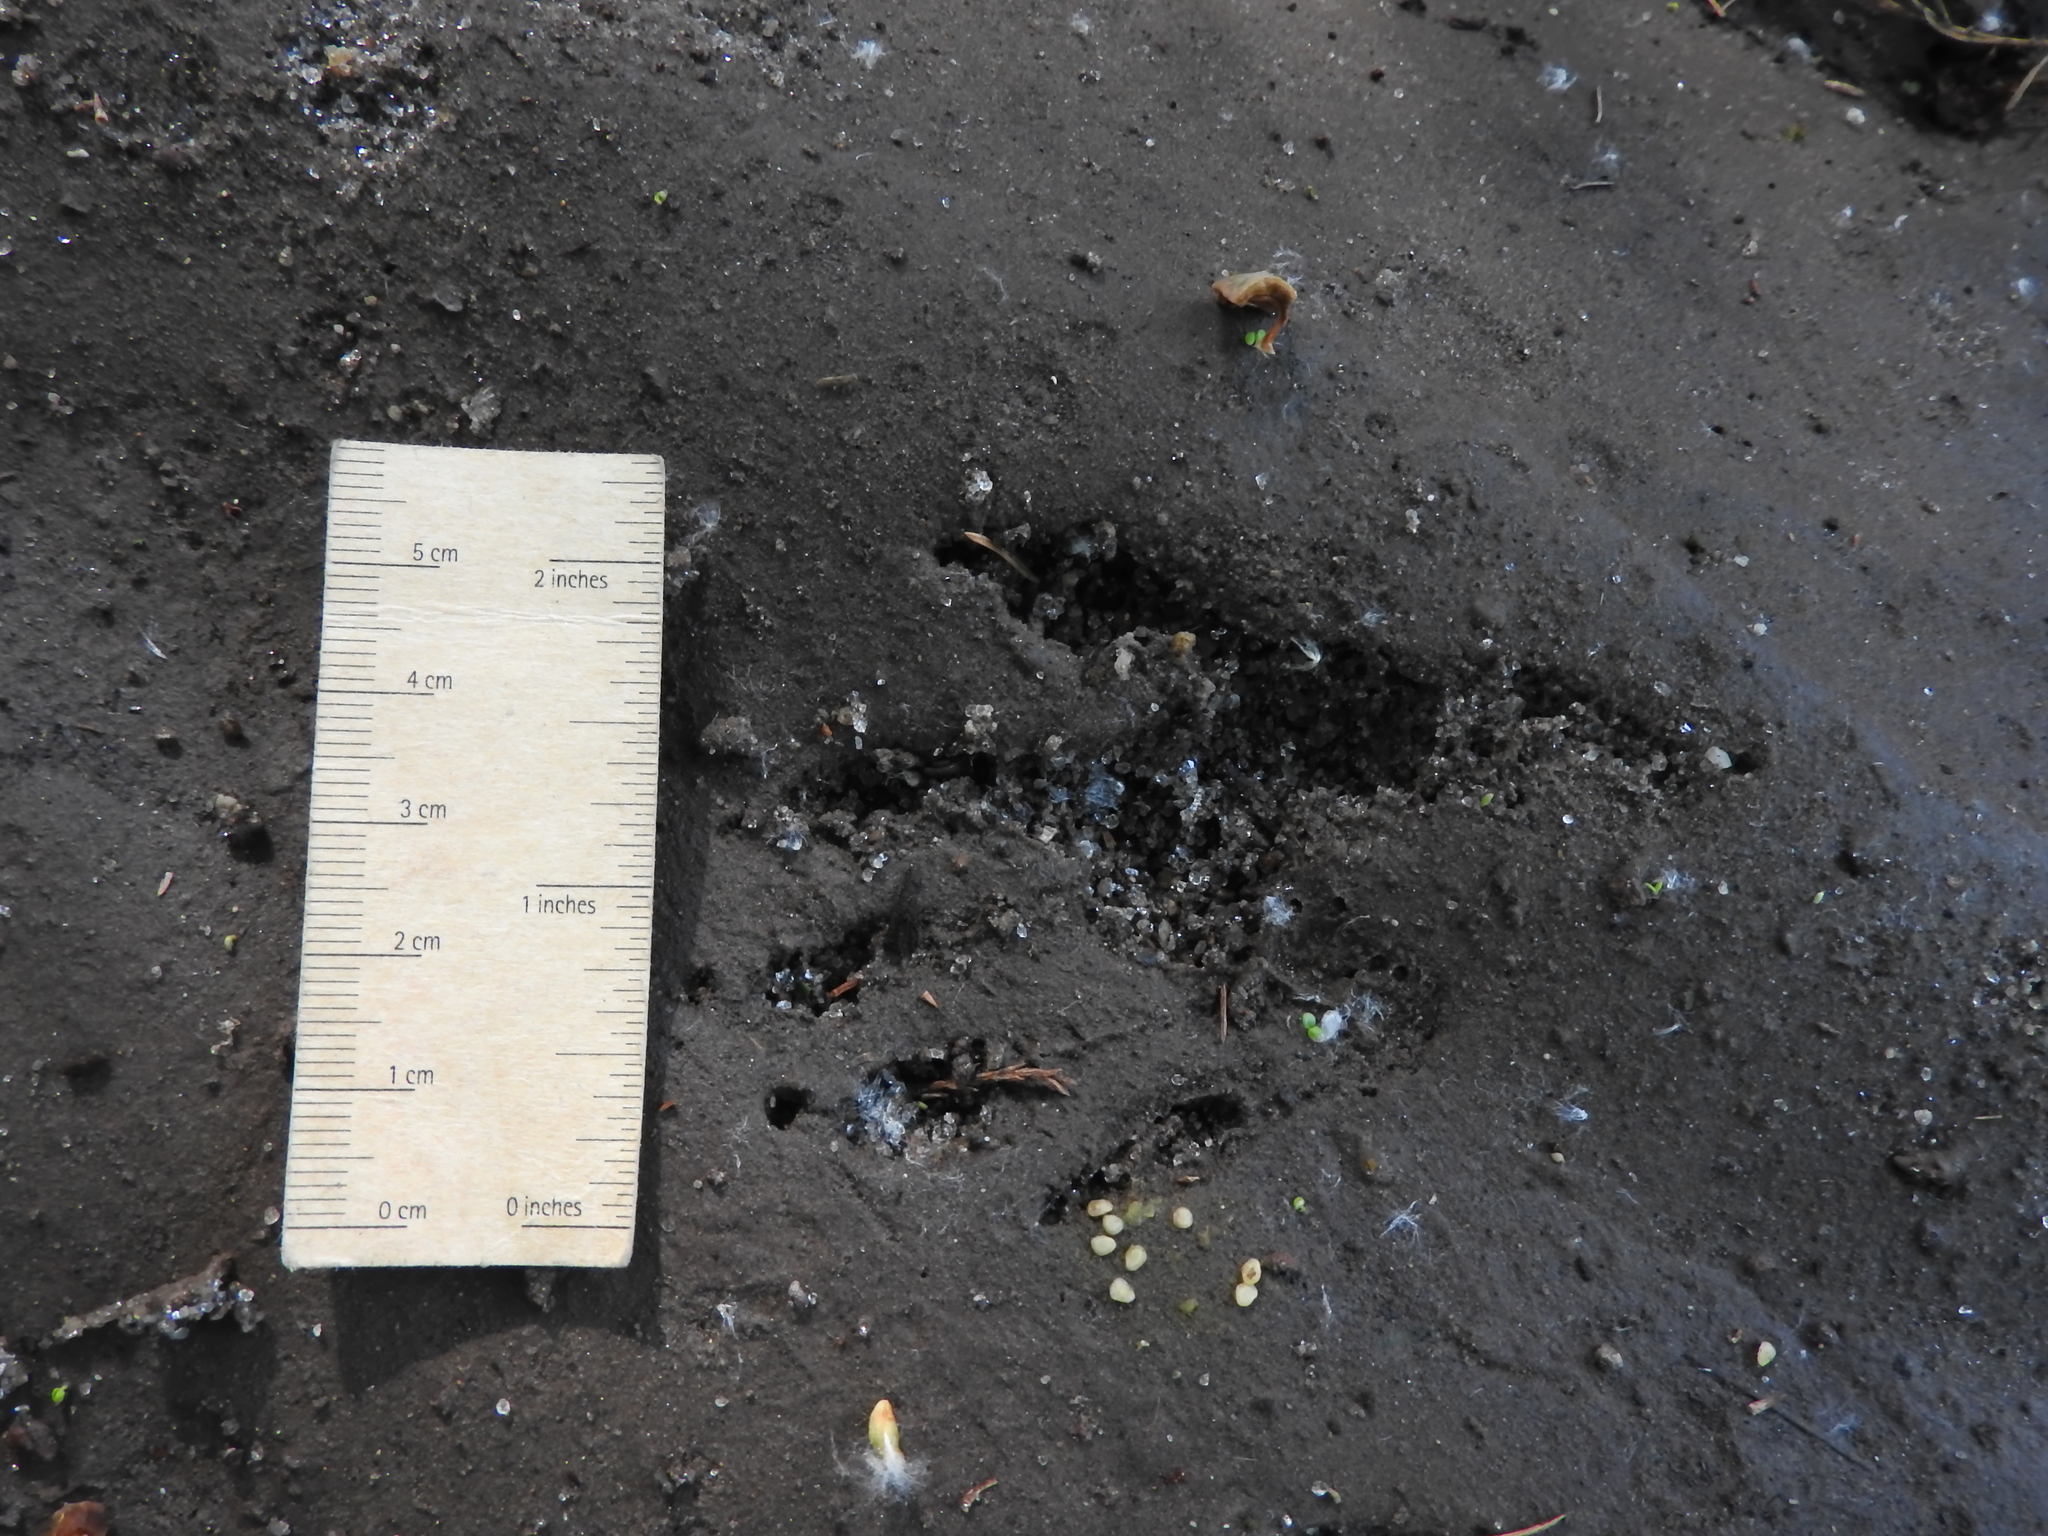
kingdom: Animalia
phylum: Chordata
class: Mammalia
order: Carnivora
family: Procyonidae
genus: Procyon
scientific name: Procyon lotor
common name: Raccoon
